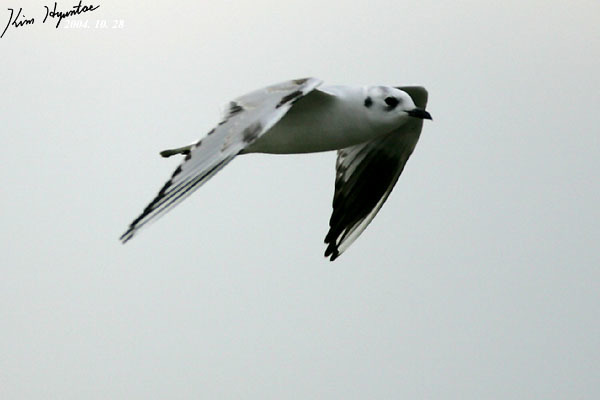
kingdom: Animalia
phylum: Chordata
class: Aves
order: Charadriiformes
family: Laridae
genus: Chroicocephalus
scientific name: Chroicocephalus saundersi
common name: Saunders's gull
